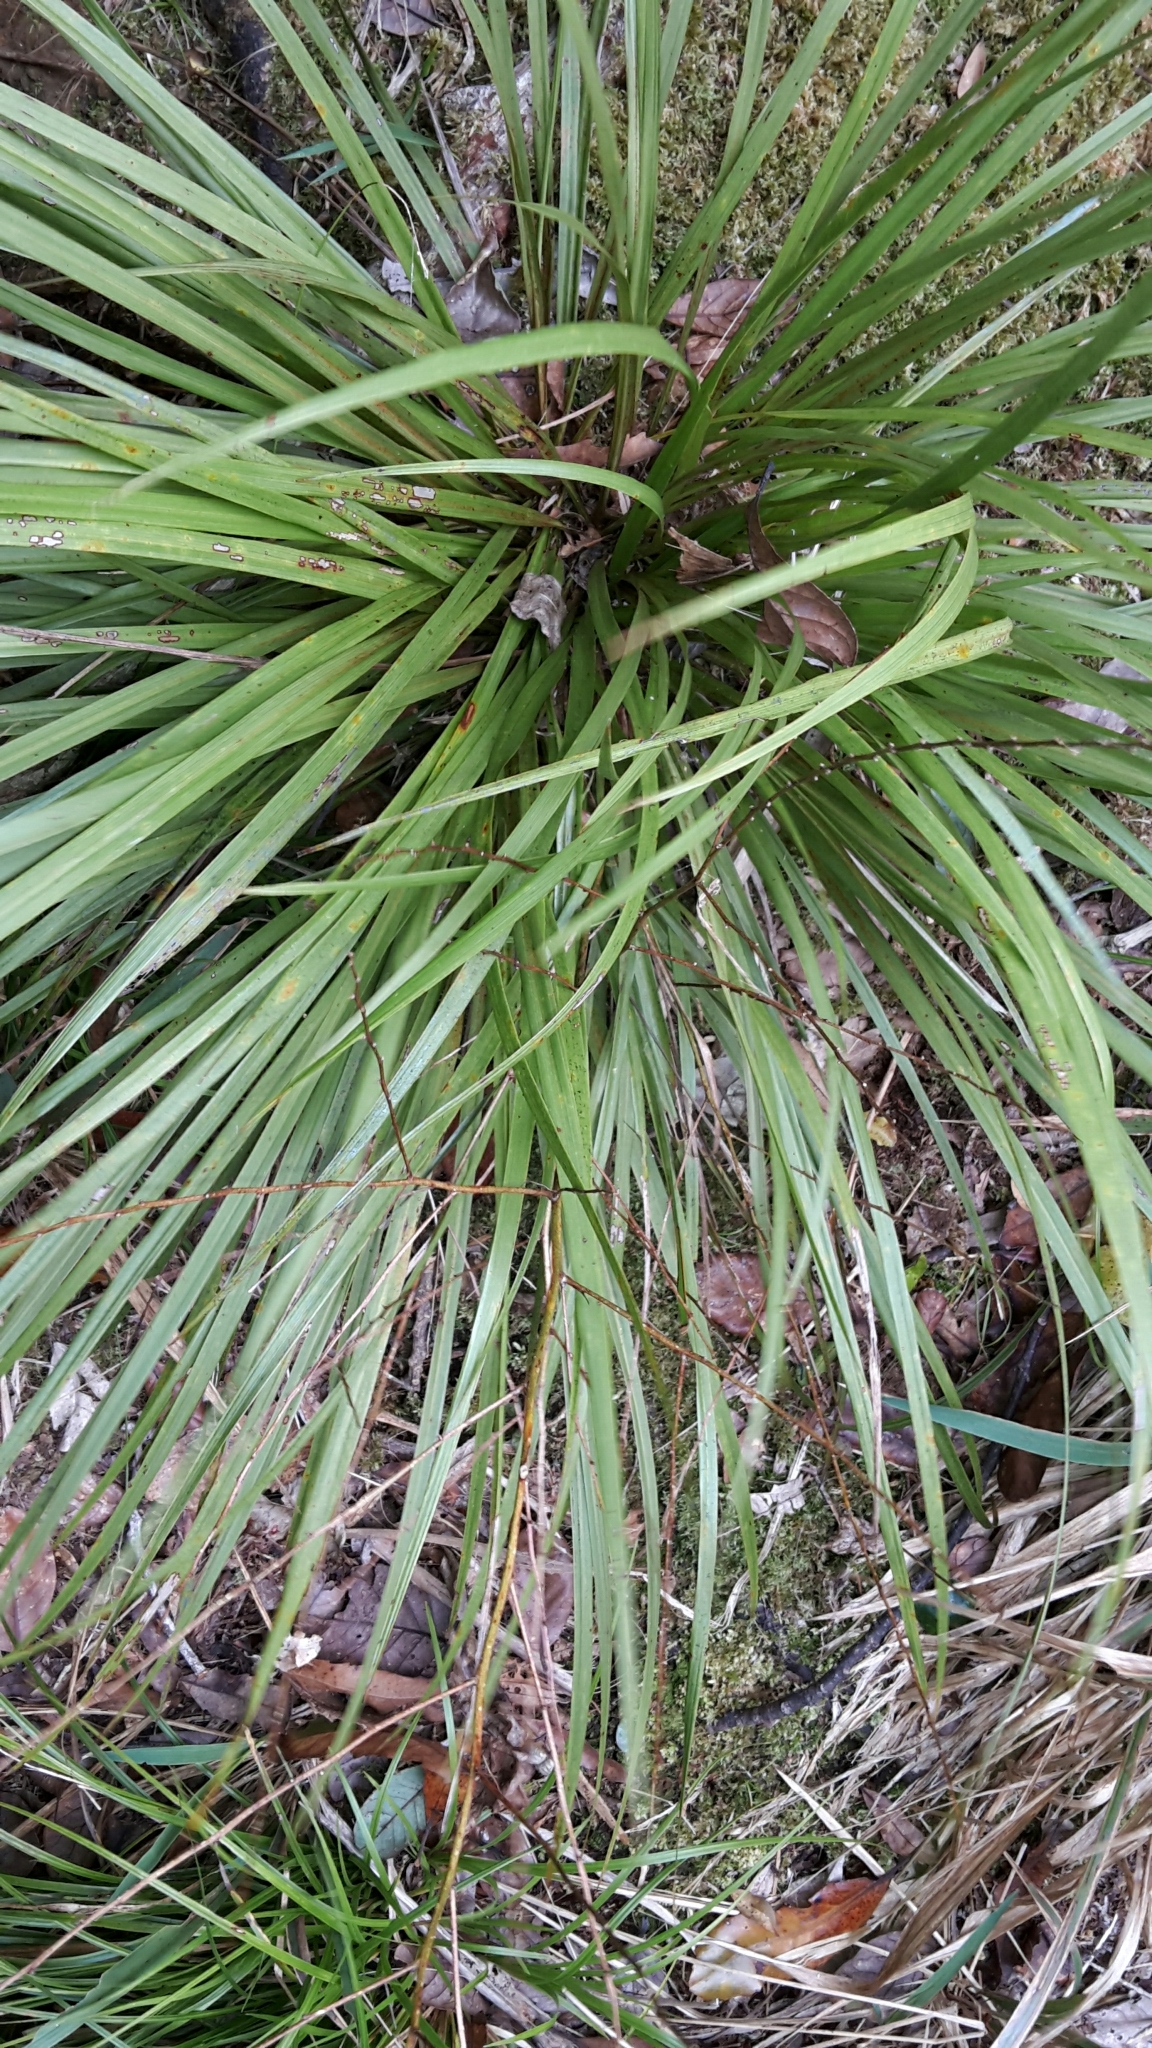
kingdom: Plantae
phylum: Tracheophyta
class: Liliopsida
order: Asparagales
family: Asparagaceae
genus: Cordyline
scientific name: Cordyline pumilio
